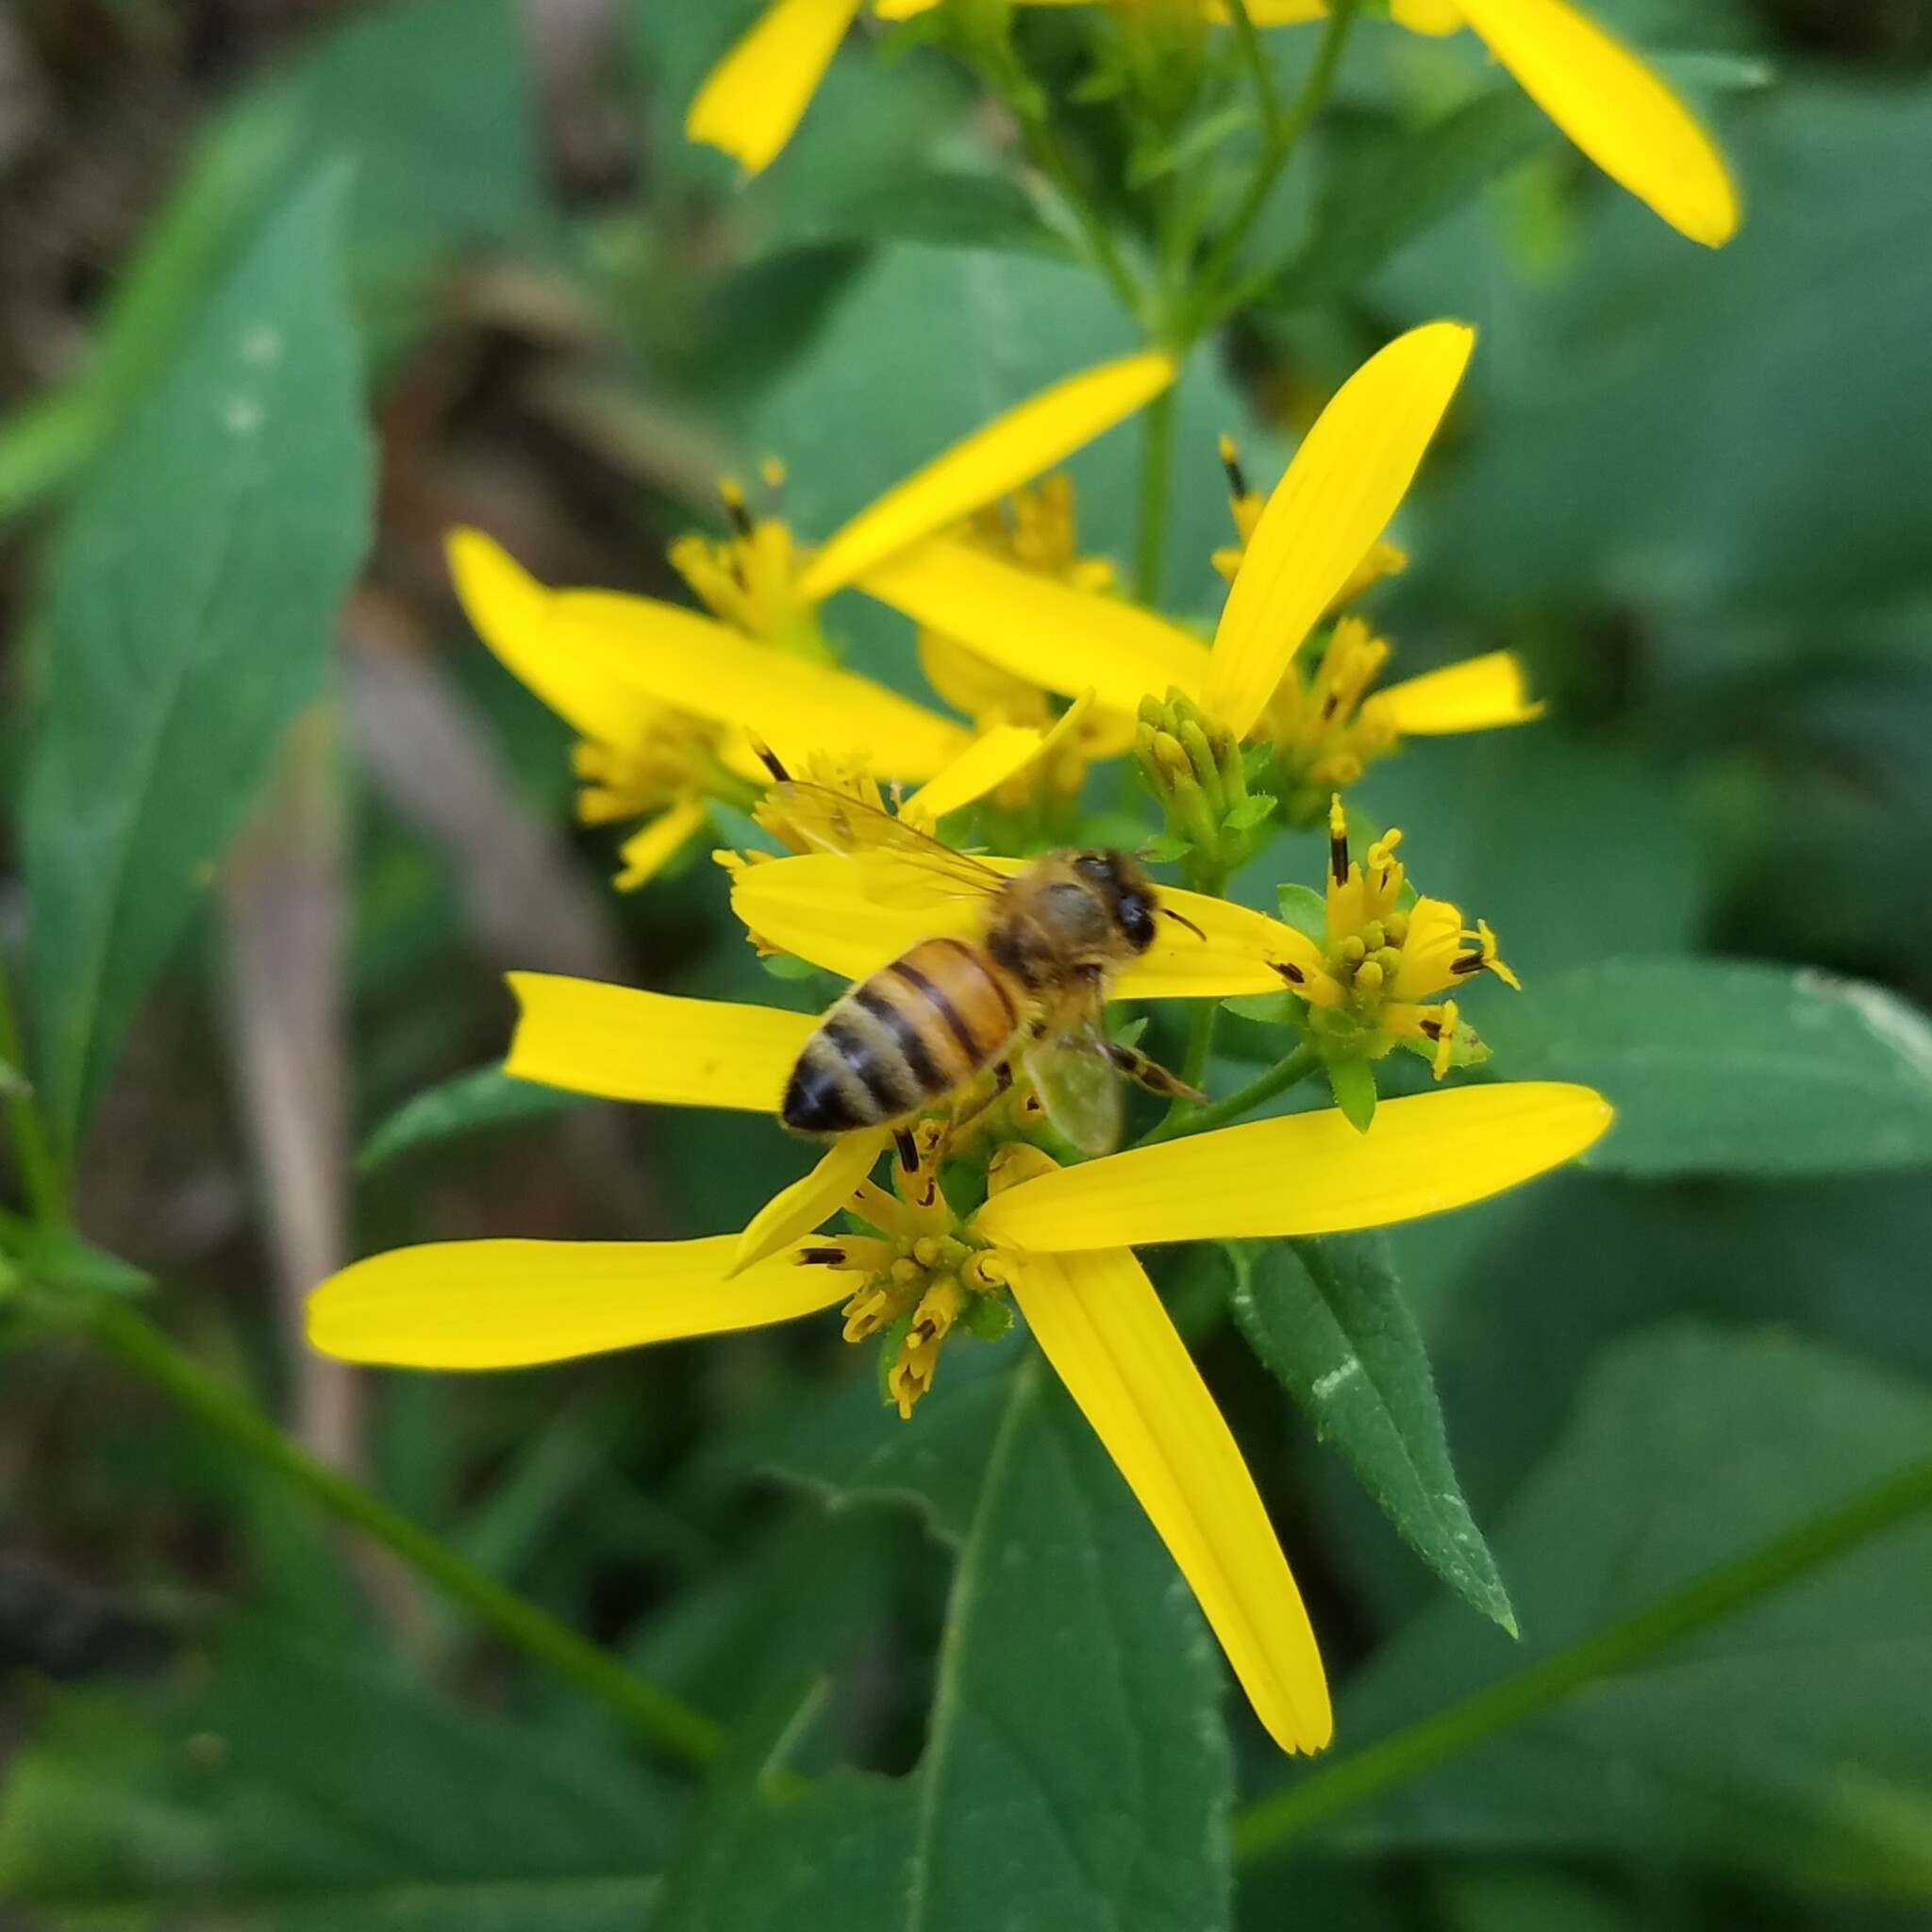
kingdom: Animalia
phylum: Arthropoda
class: Insecta
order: Hymenoptera
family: Apidae
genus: Apis
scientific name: Apis mellifera
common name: Honey bee
